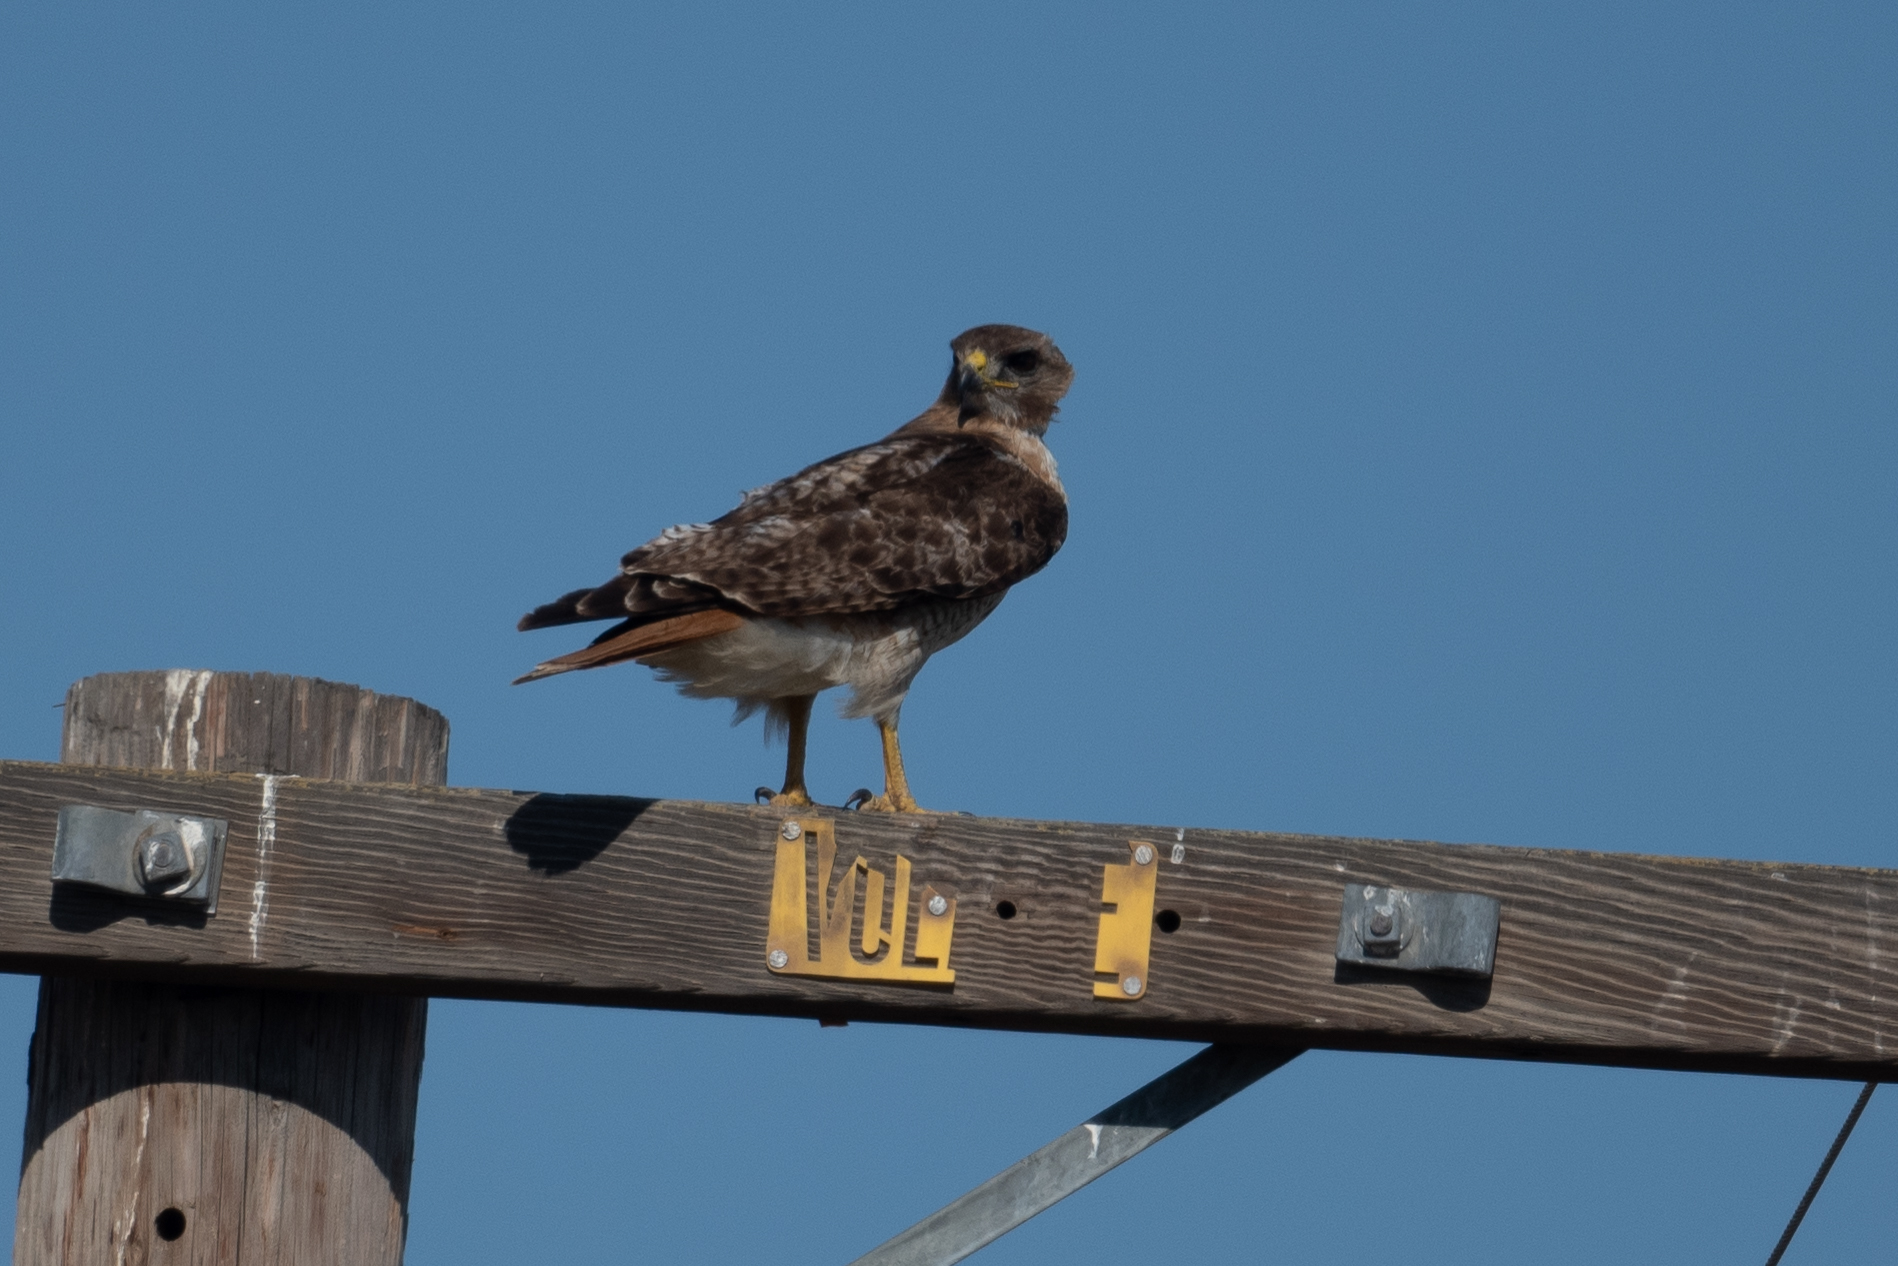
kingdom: Animalia
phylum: Chordata
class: Aves
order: Accipitriformes
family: Accipitridae
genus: Buteo
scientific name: Buteo jamaicensis
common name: Red-tailed hawk
